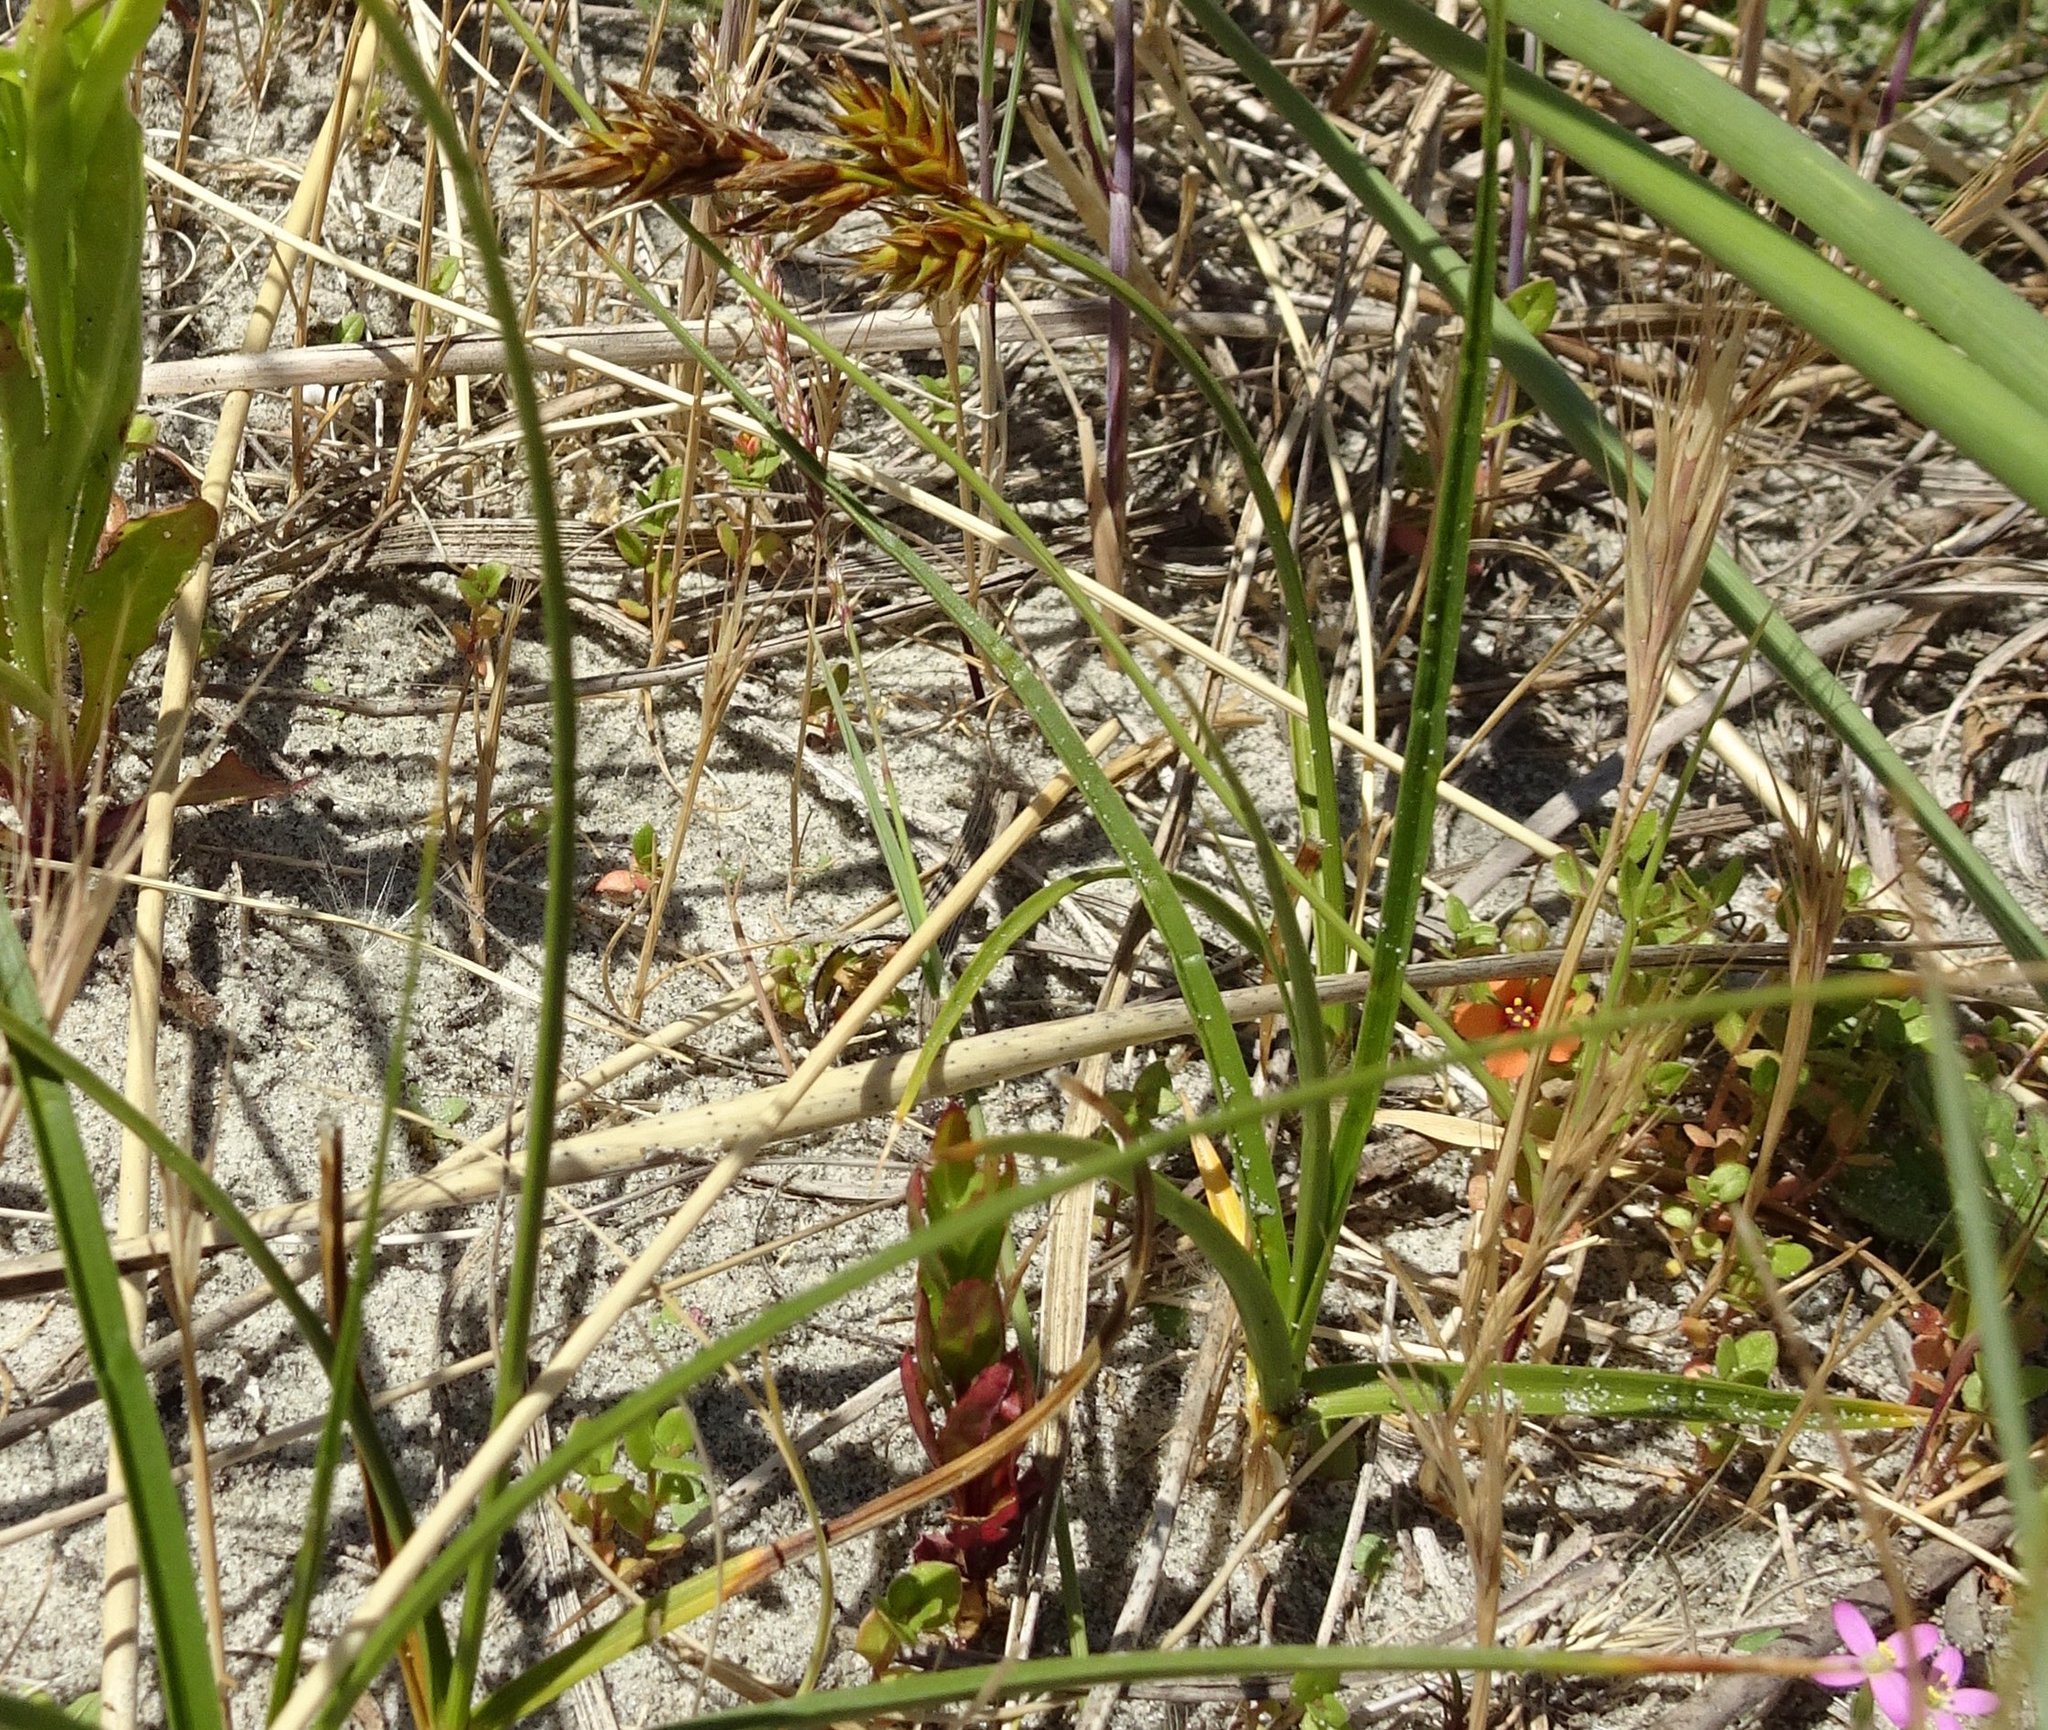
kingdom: Plantae
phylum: Tracheophyta
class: Liliopsida
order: Poales
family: Cyperaceae
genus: Carex
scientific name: Carex arenaria
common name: Sand sedge
